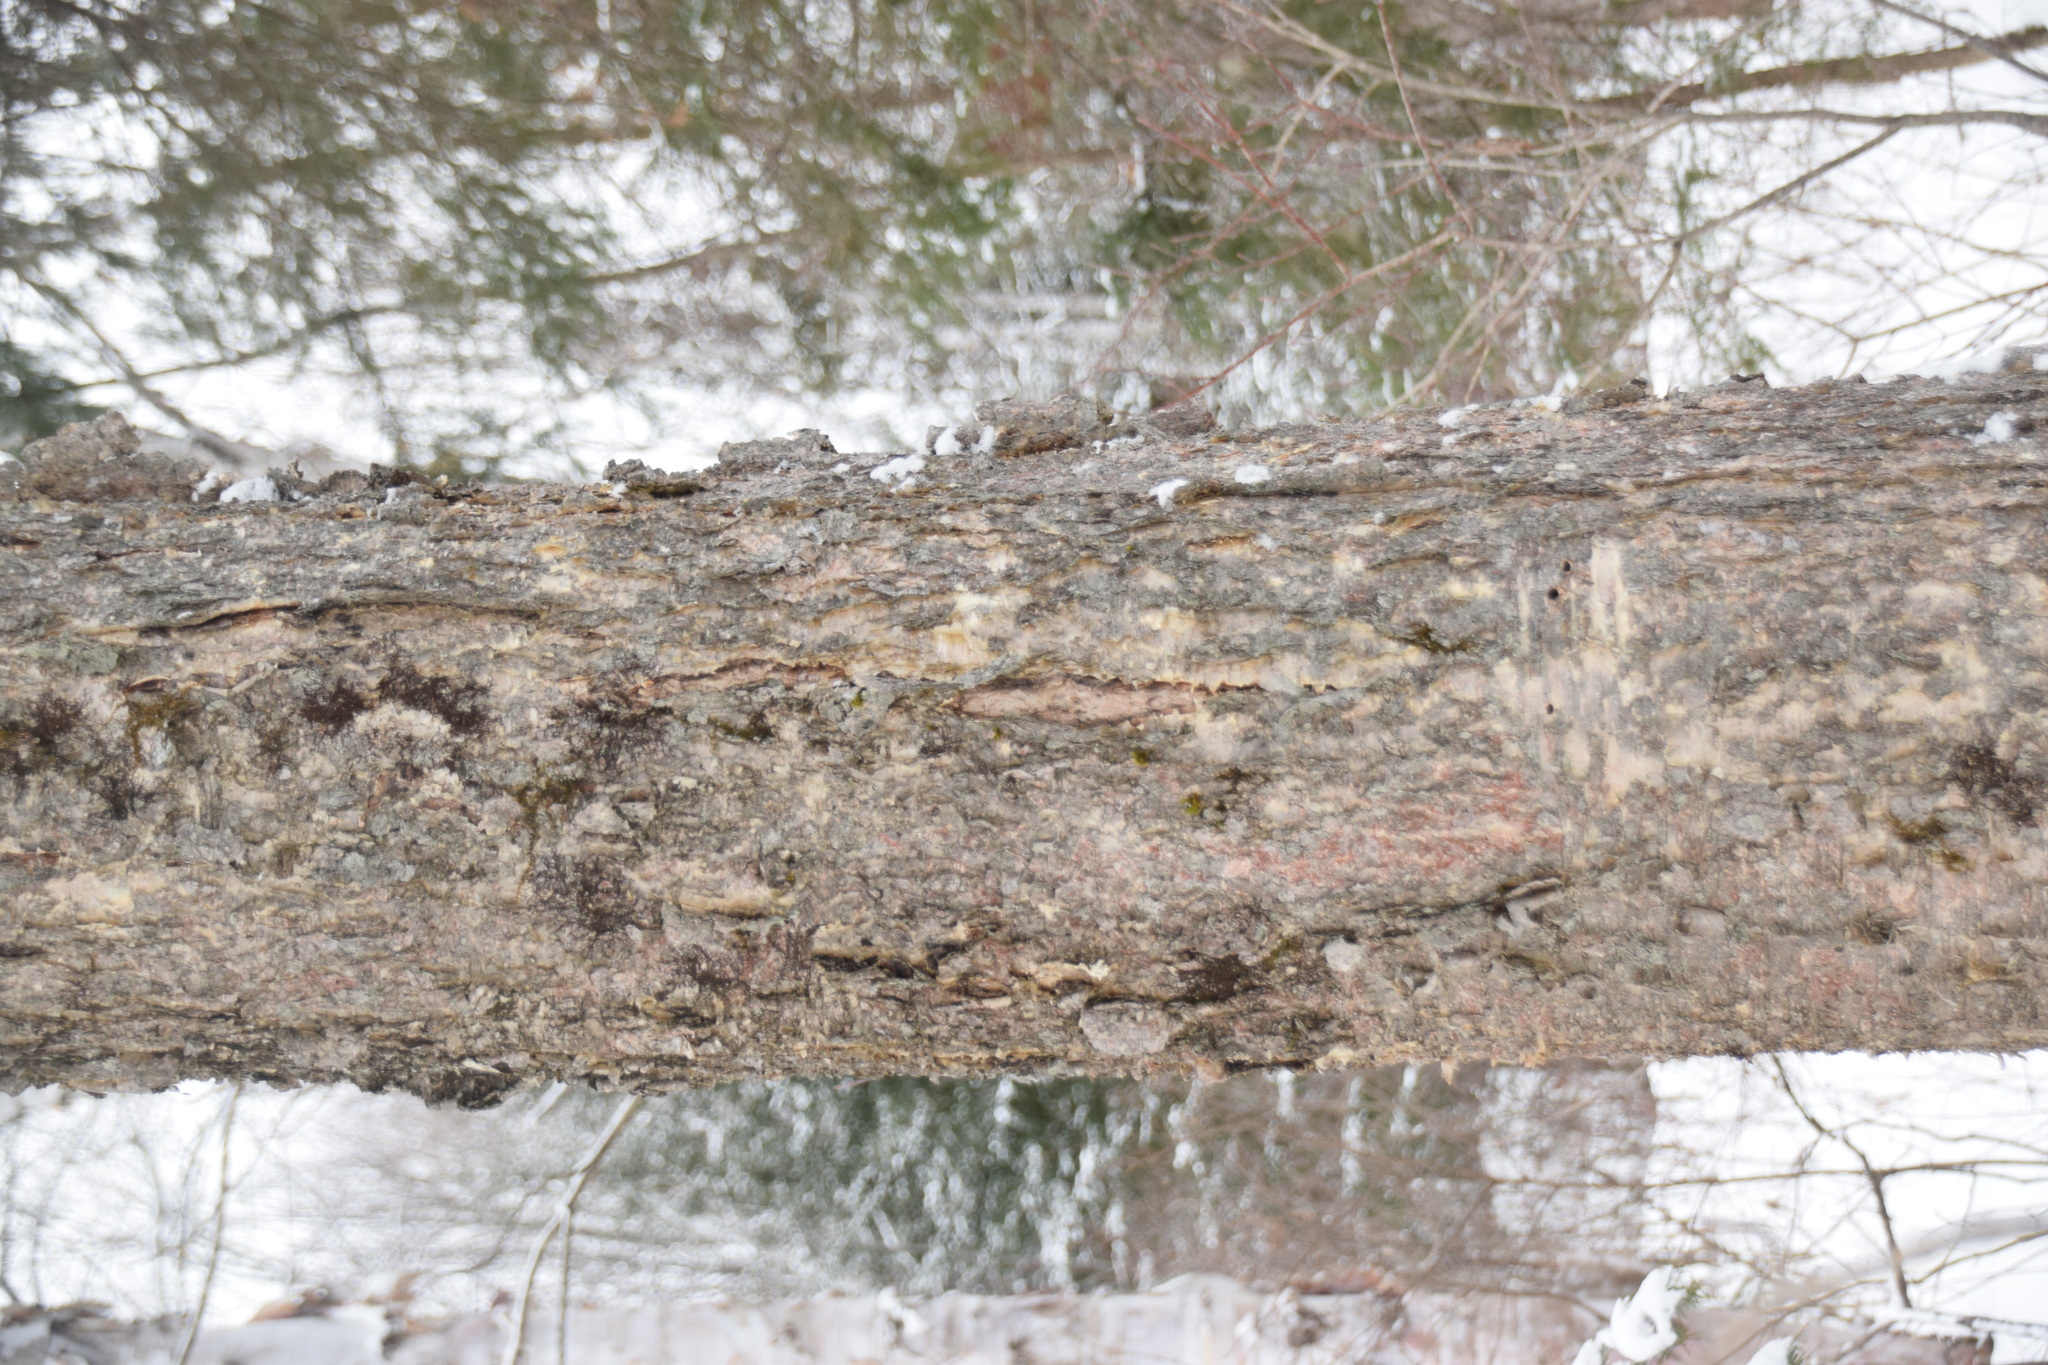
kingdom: Plantae
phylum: Tracheophyta
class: Magnoliopsida
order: Fagales
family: Betulaceae
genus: Betula
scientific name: Betula alleghaniensis
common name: Yellow birch
